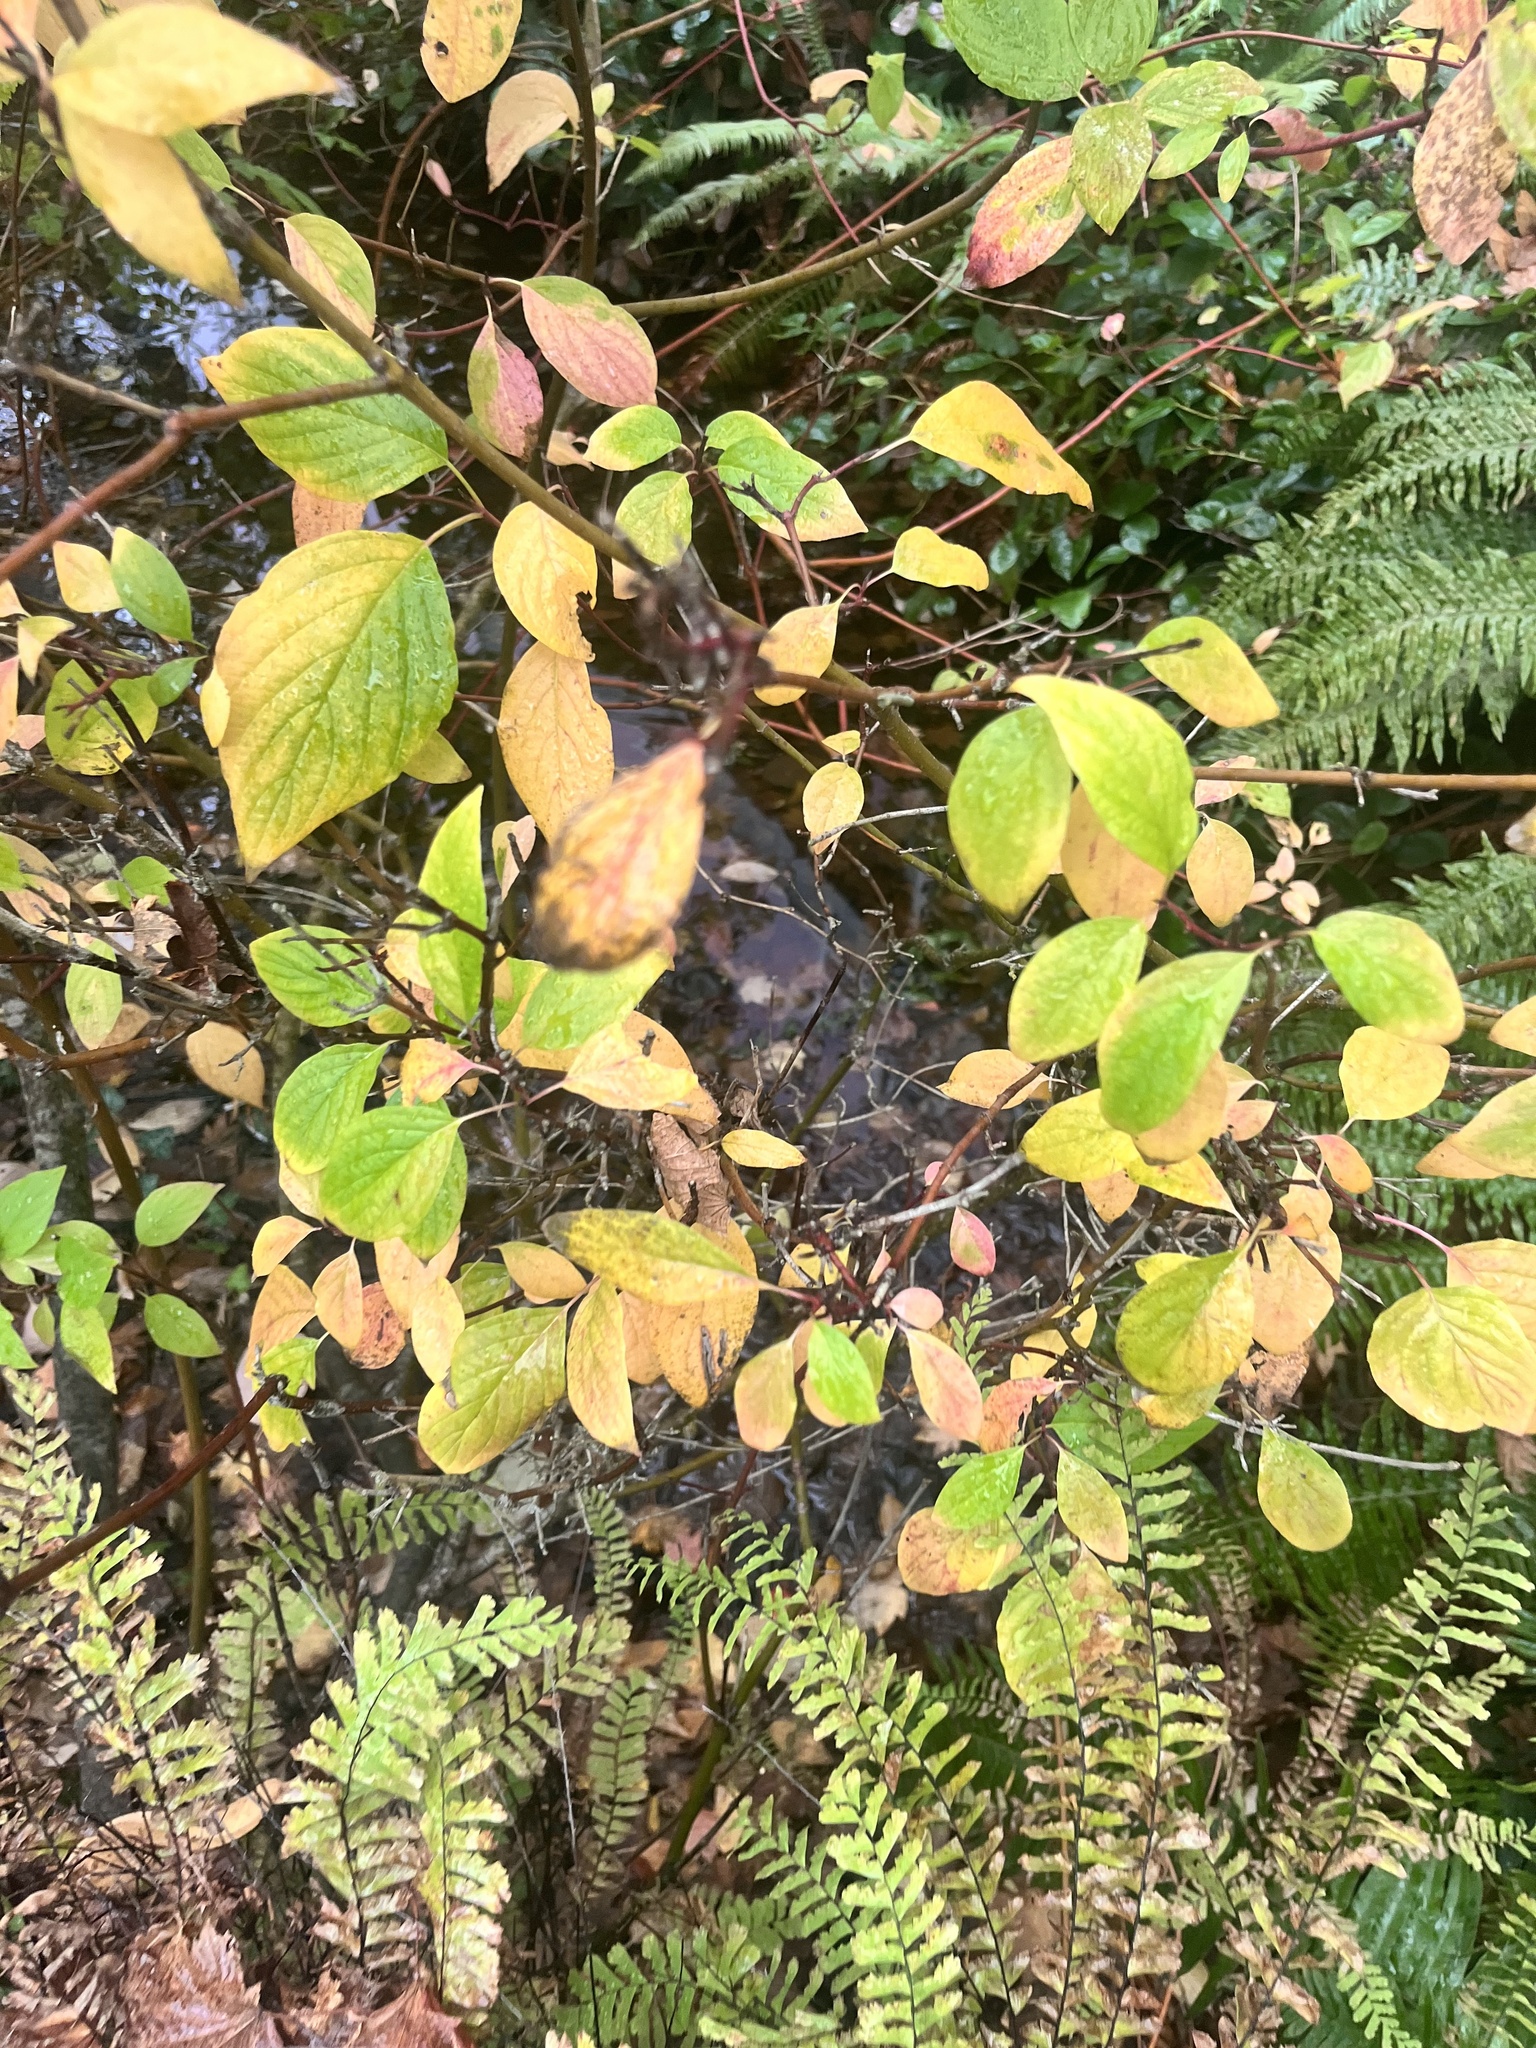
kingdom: Plantae
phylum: Tracheophyta
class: Magnoliopsida
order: Cornales
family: Cornaceae
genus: Cornus
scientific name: Cornus sericea
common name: Red-osier dogwood
